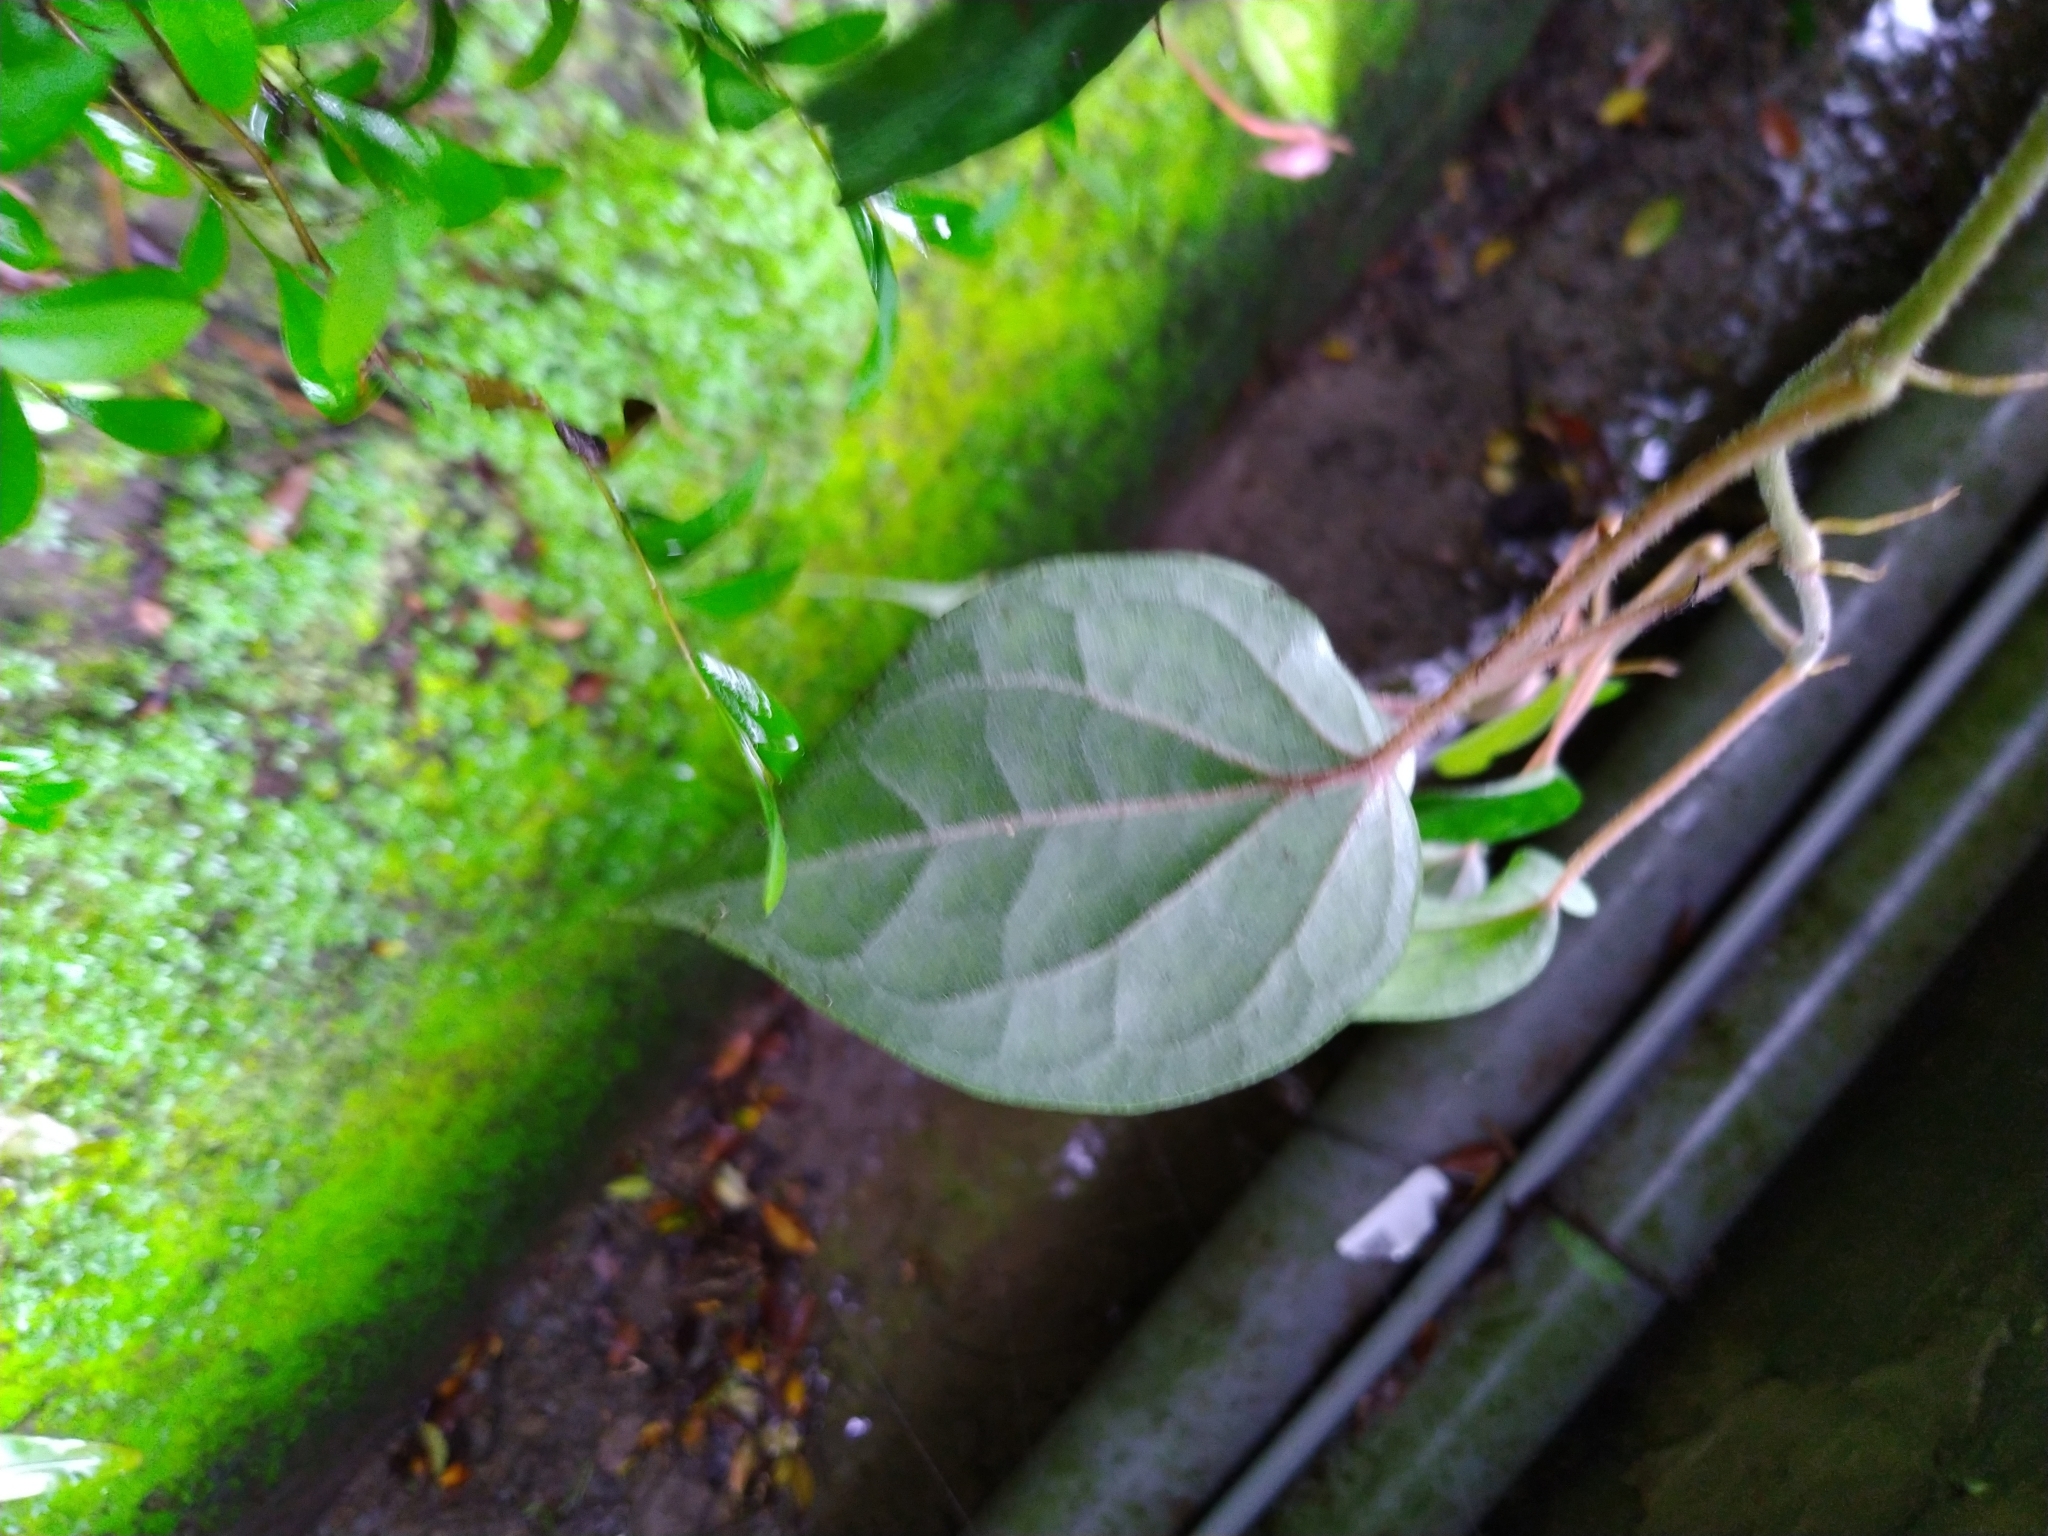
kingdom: Plantae
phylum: Tracheophyta
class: Magnoliopsida
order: Piperales
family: Piperaceae
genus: Piper
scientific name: Piper kadsura
